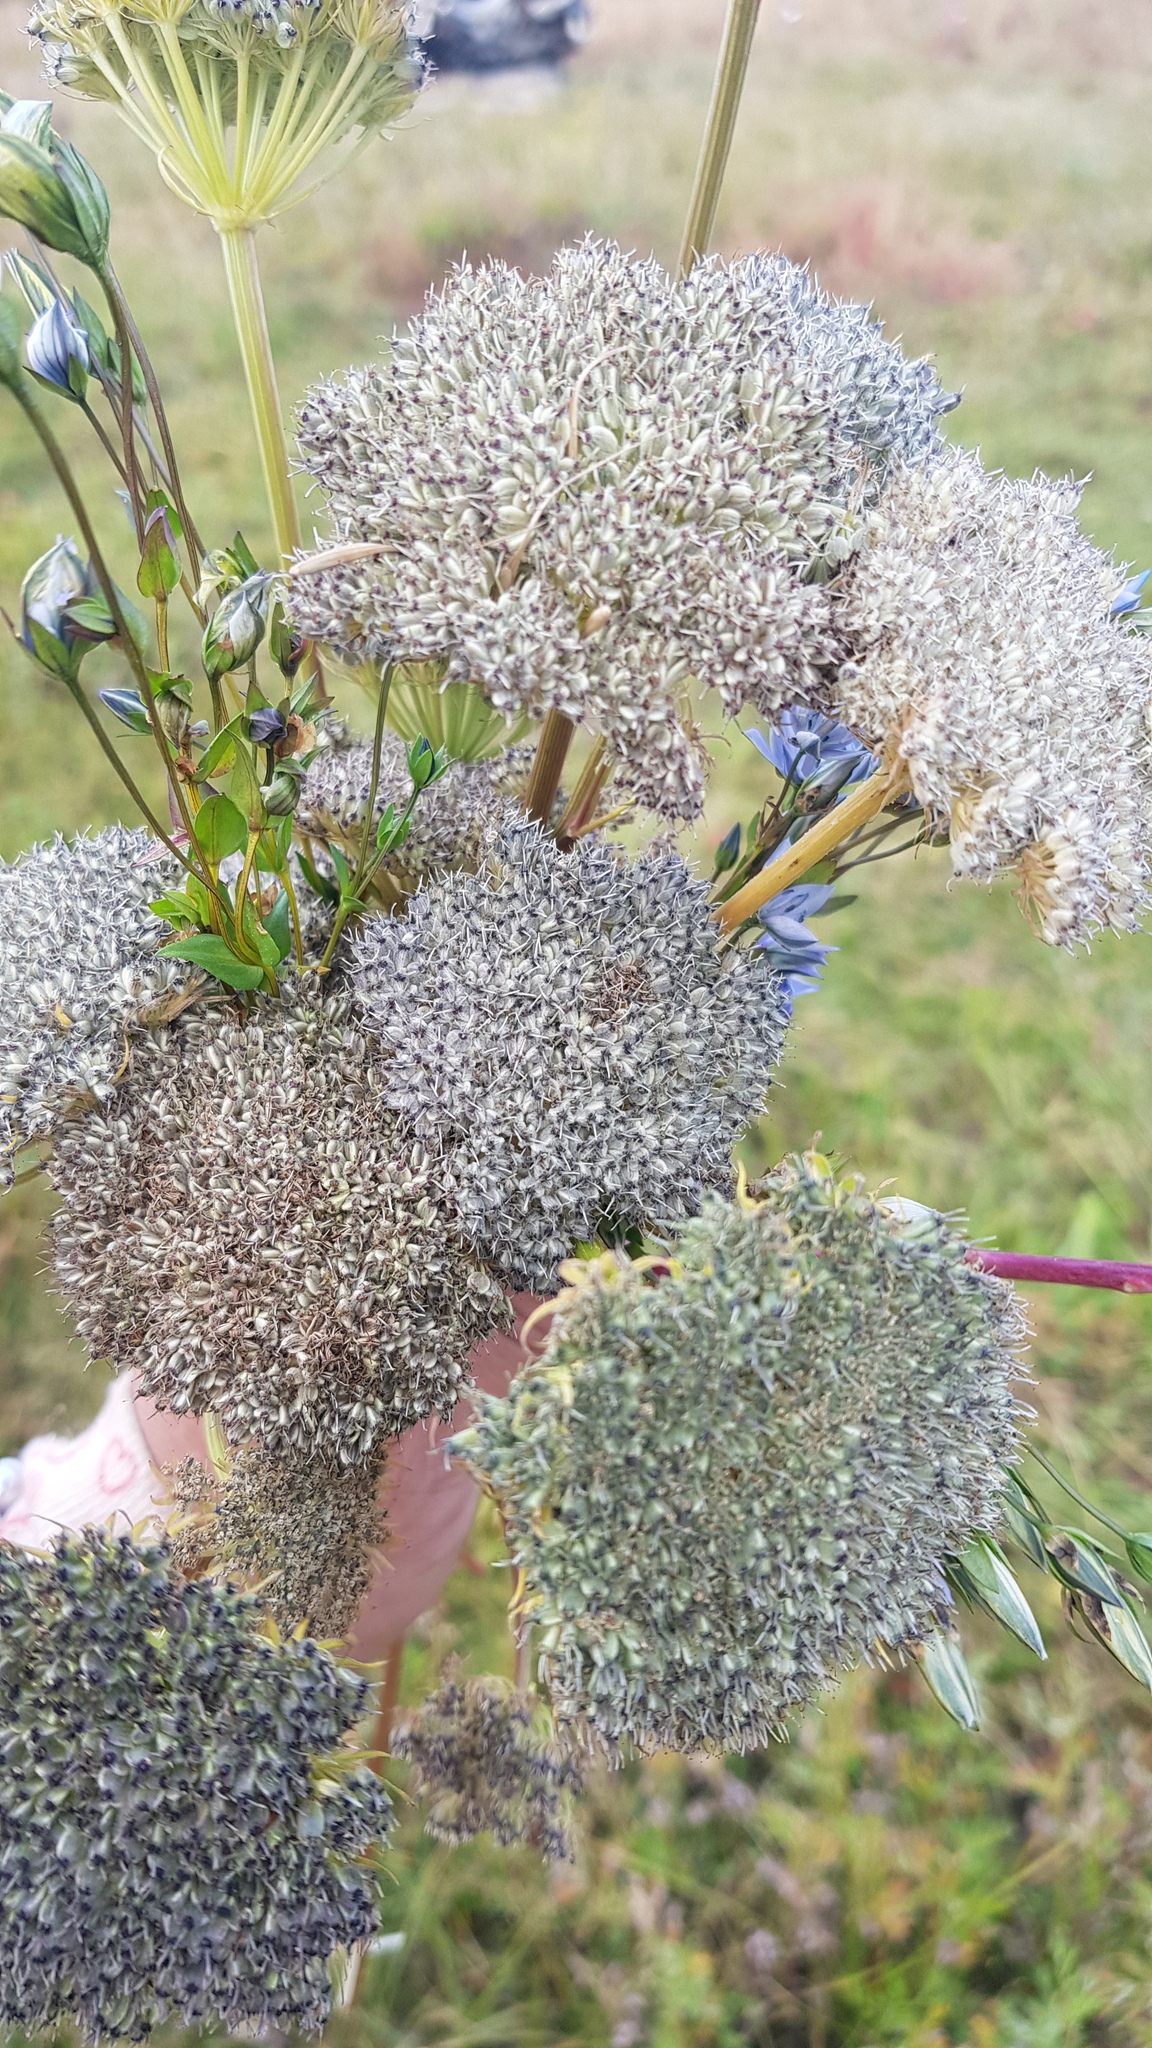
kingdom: Plantae
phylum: Tracheophyta
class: Magnoliopsida
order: Apiales
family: Apiaceae
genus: Seseli
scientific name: Seseli condensatum
